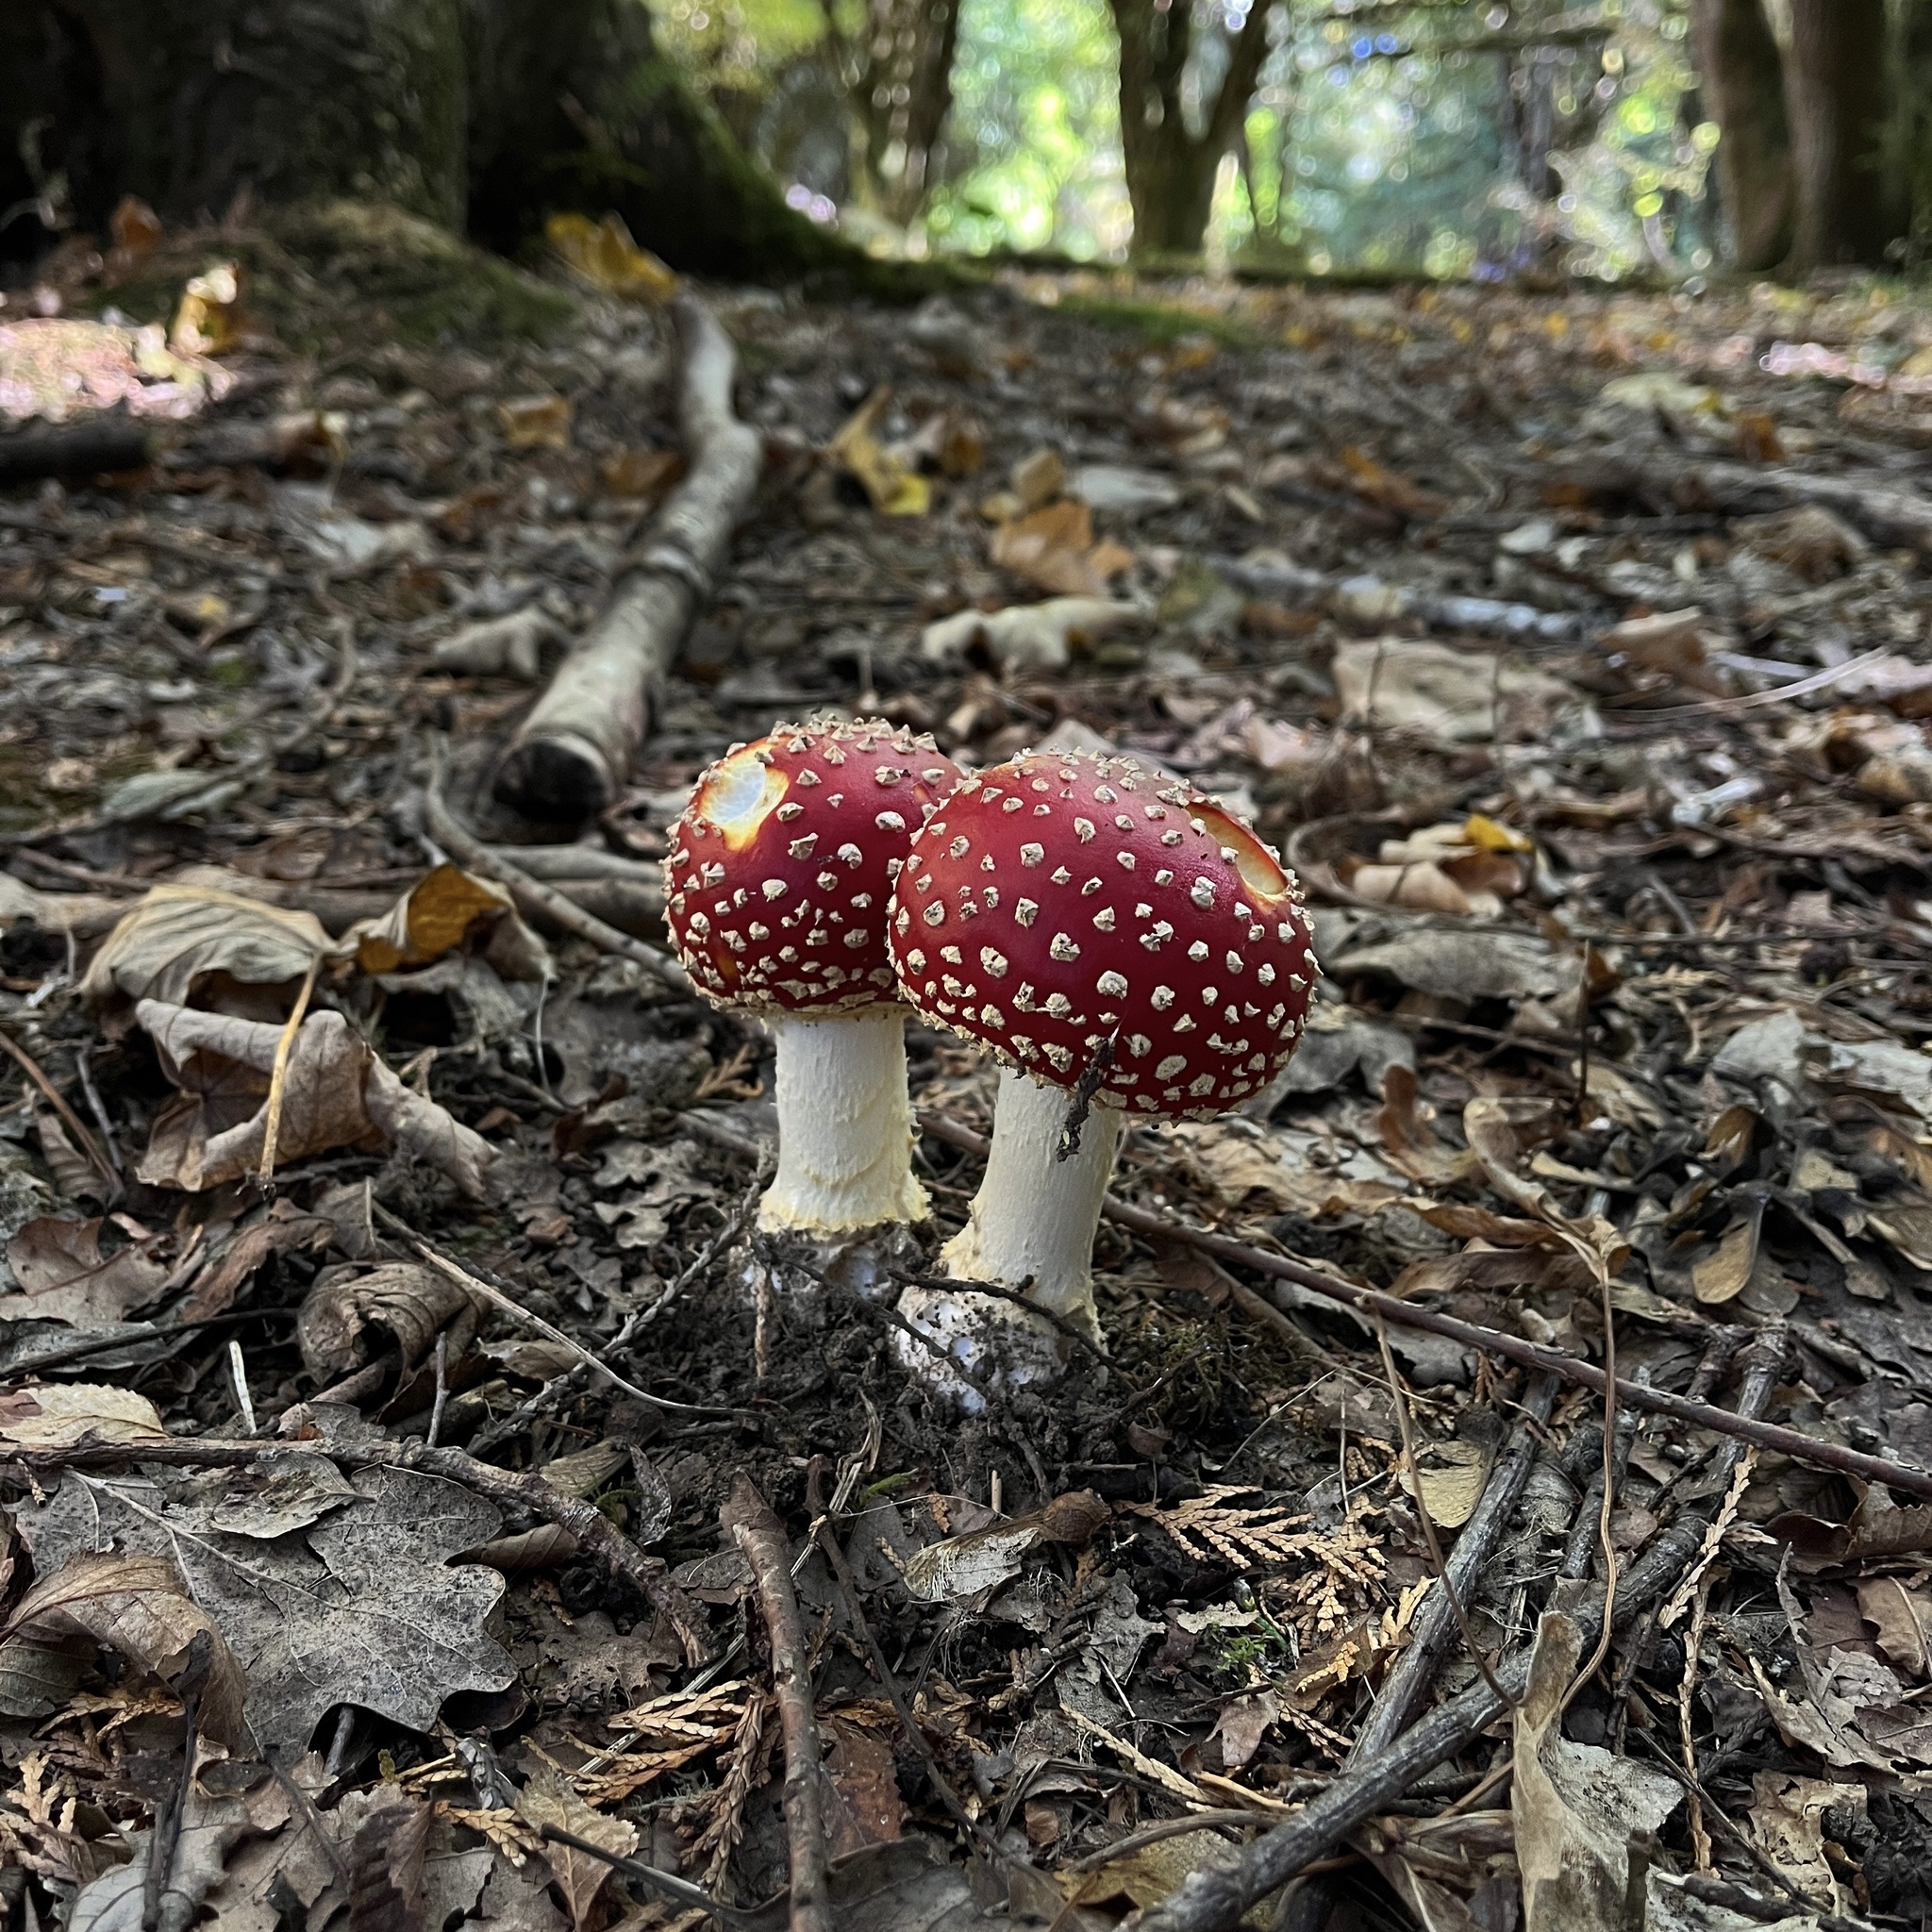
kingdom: Fungi
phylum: Basidiomycota
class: Agaricomycetes
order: Agaricales
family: Amanitaceae
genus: Amanita
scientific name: Amanita muscaria
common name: Fly agaric
